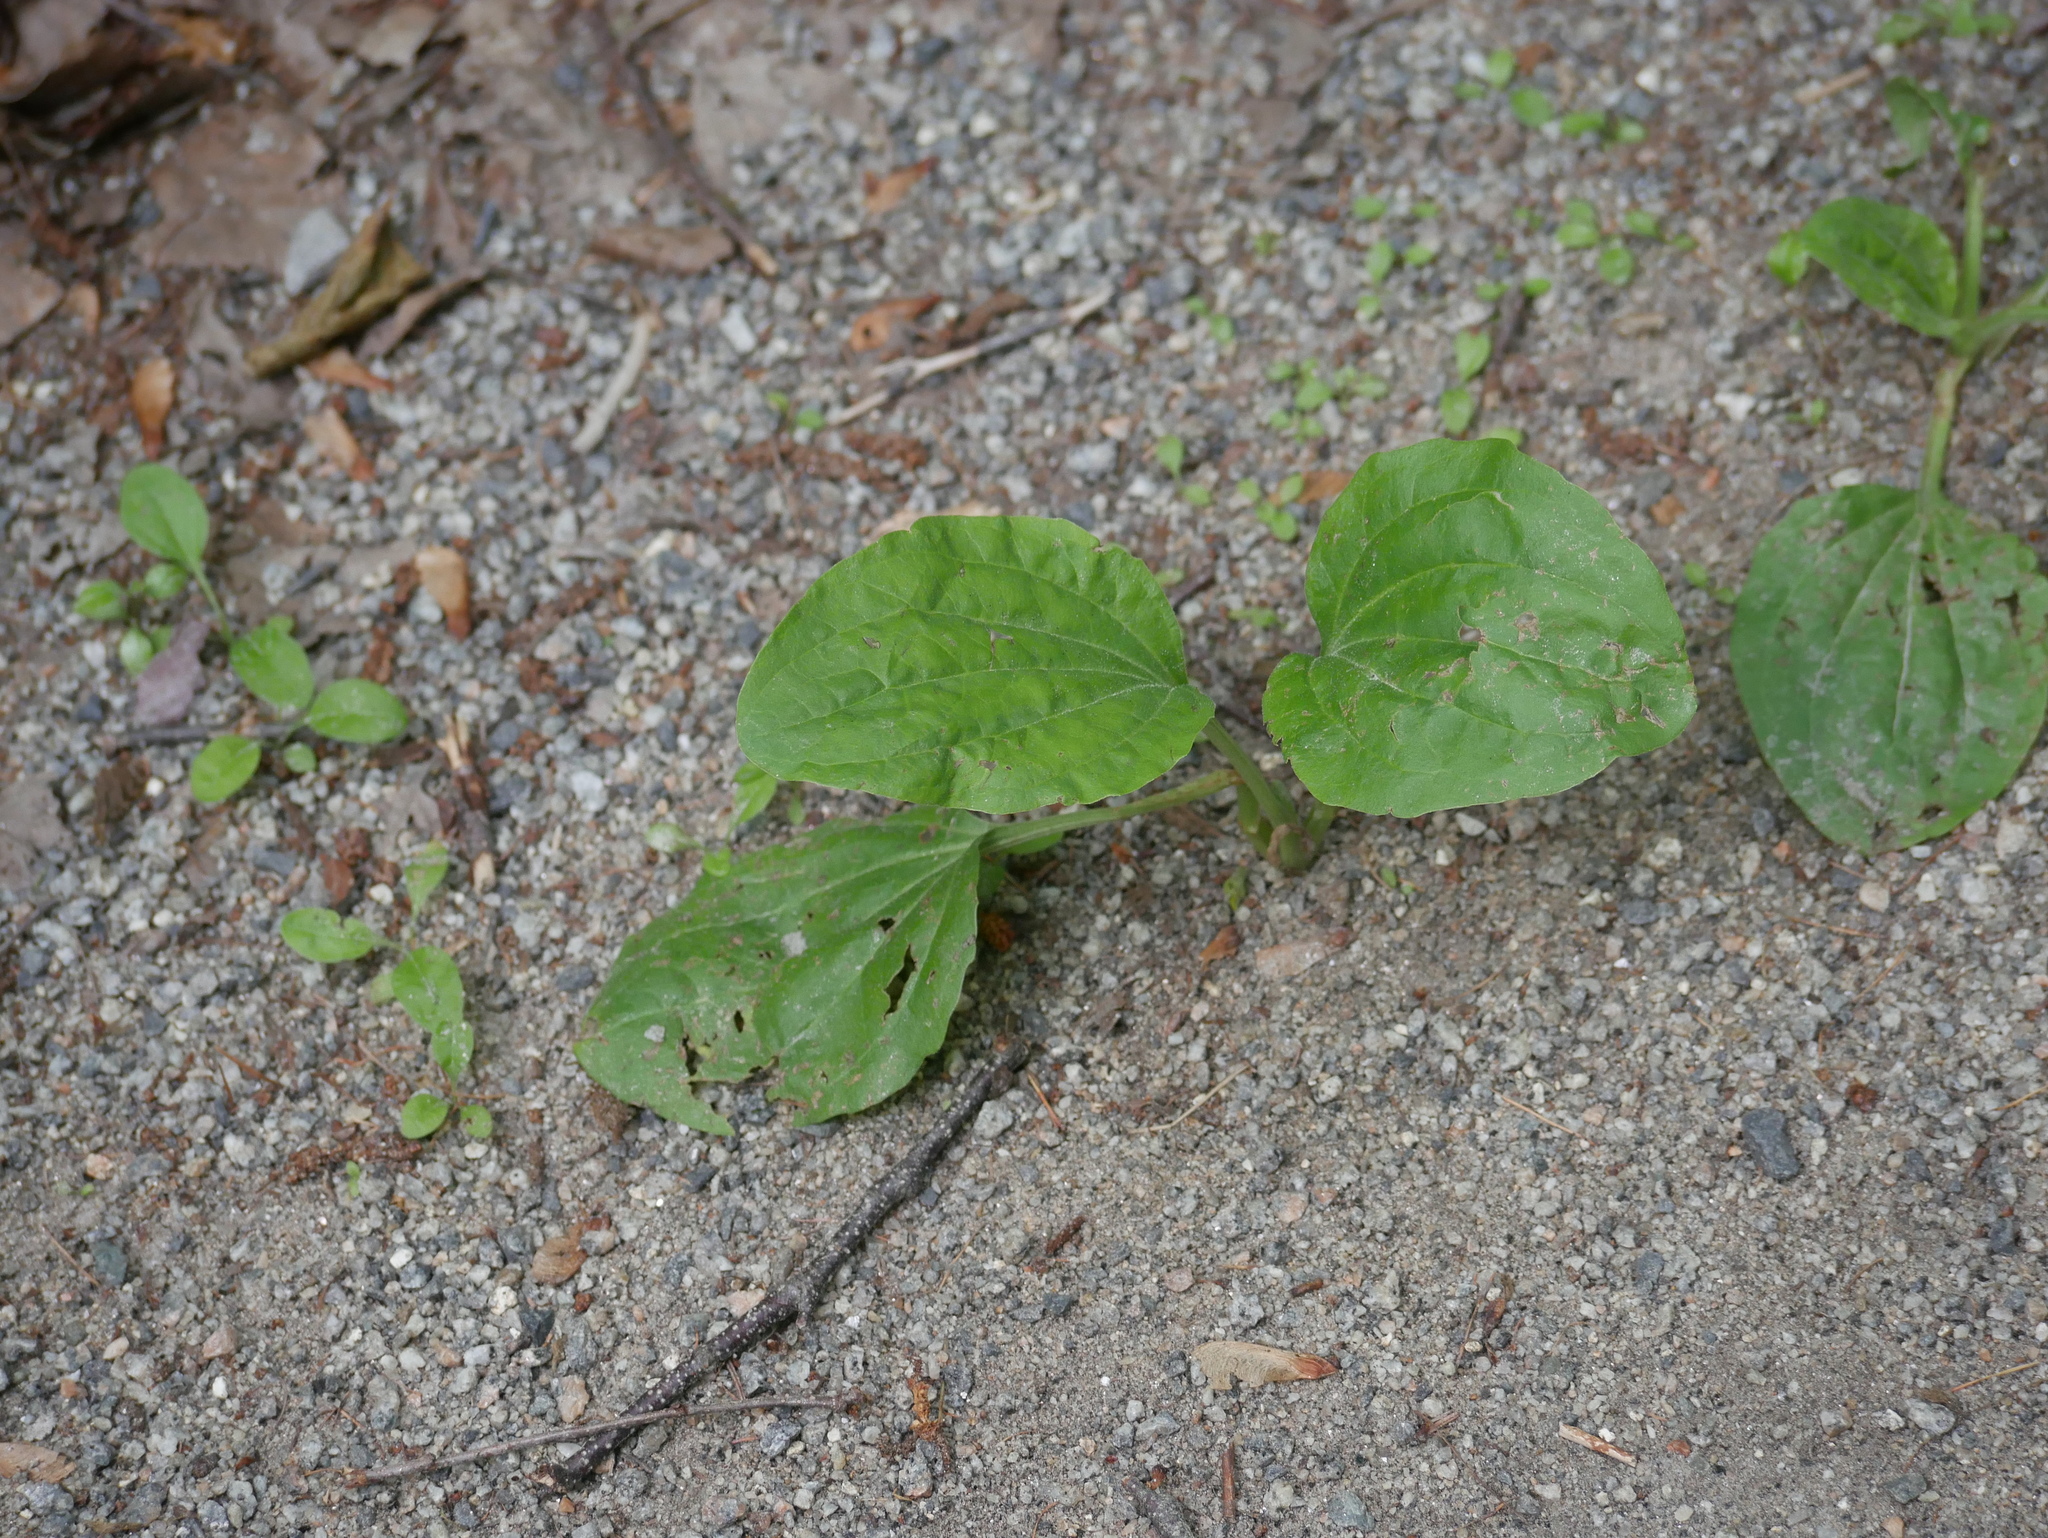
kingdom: Plantae
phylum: Tracheophyta
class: Magnoliopsida
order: Lamiales
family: Plantaginaceae
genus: Plantago
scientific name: Plantago major
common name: Common plantain
